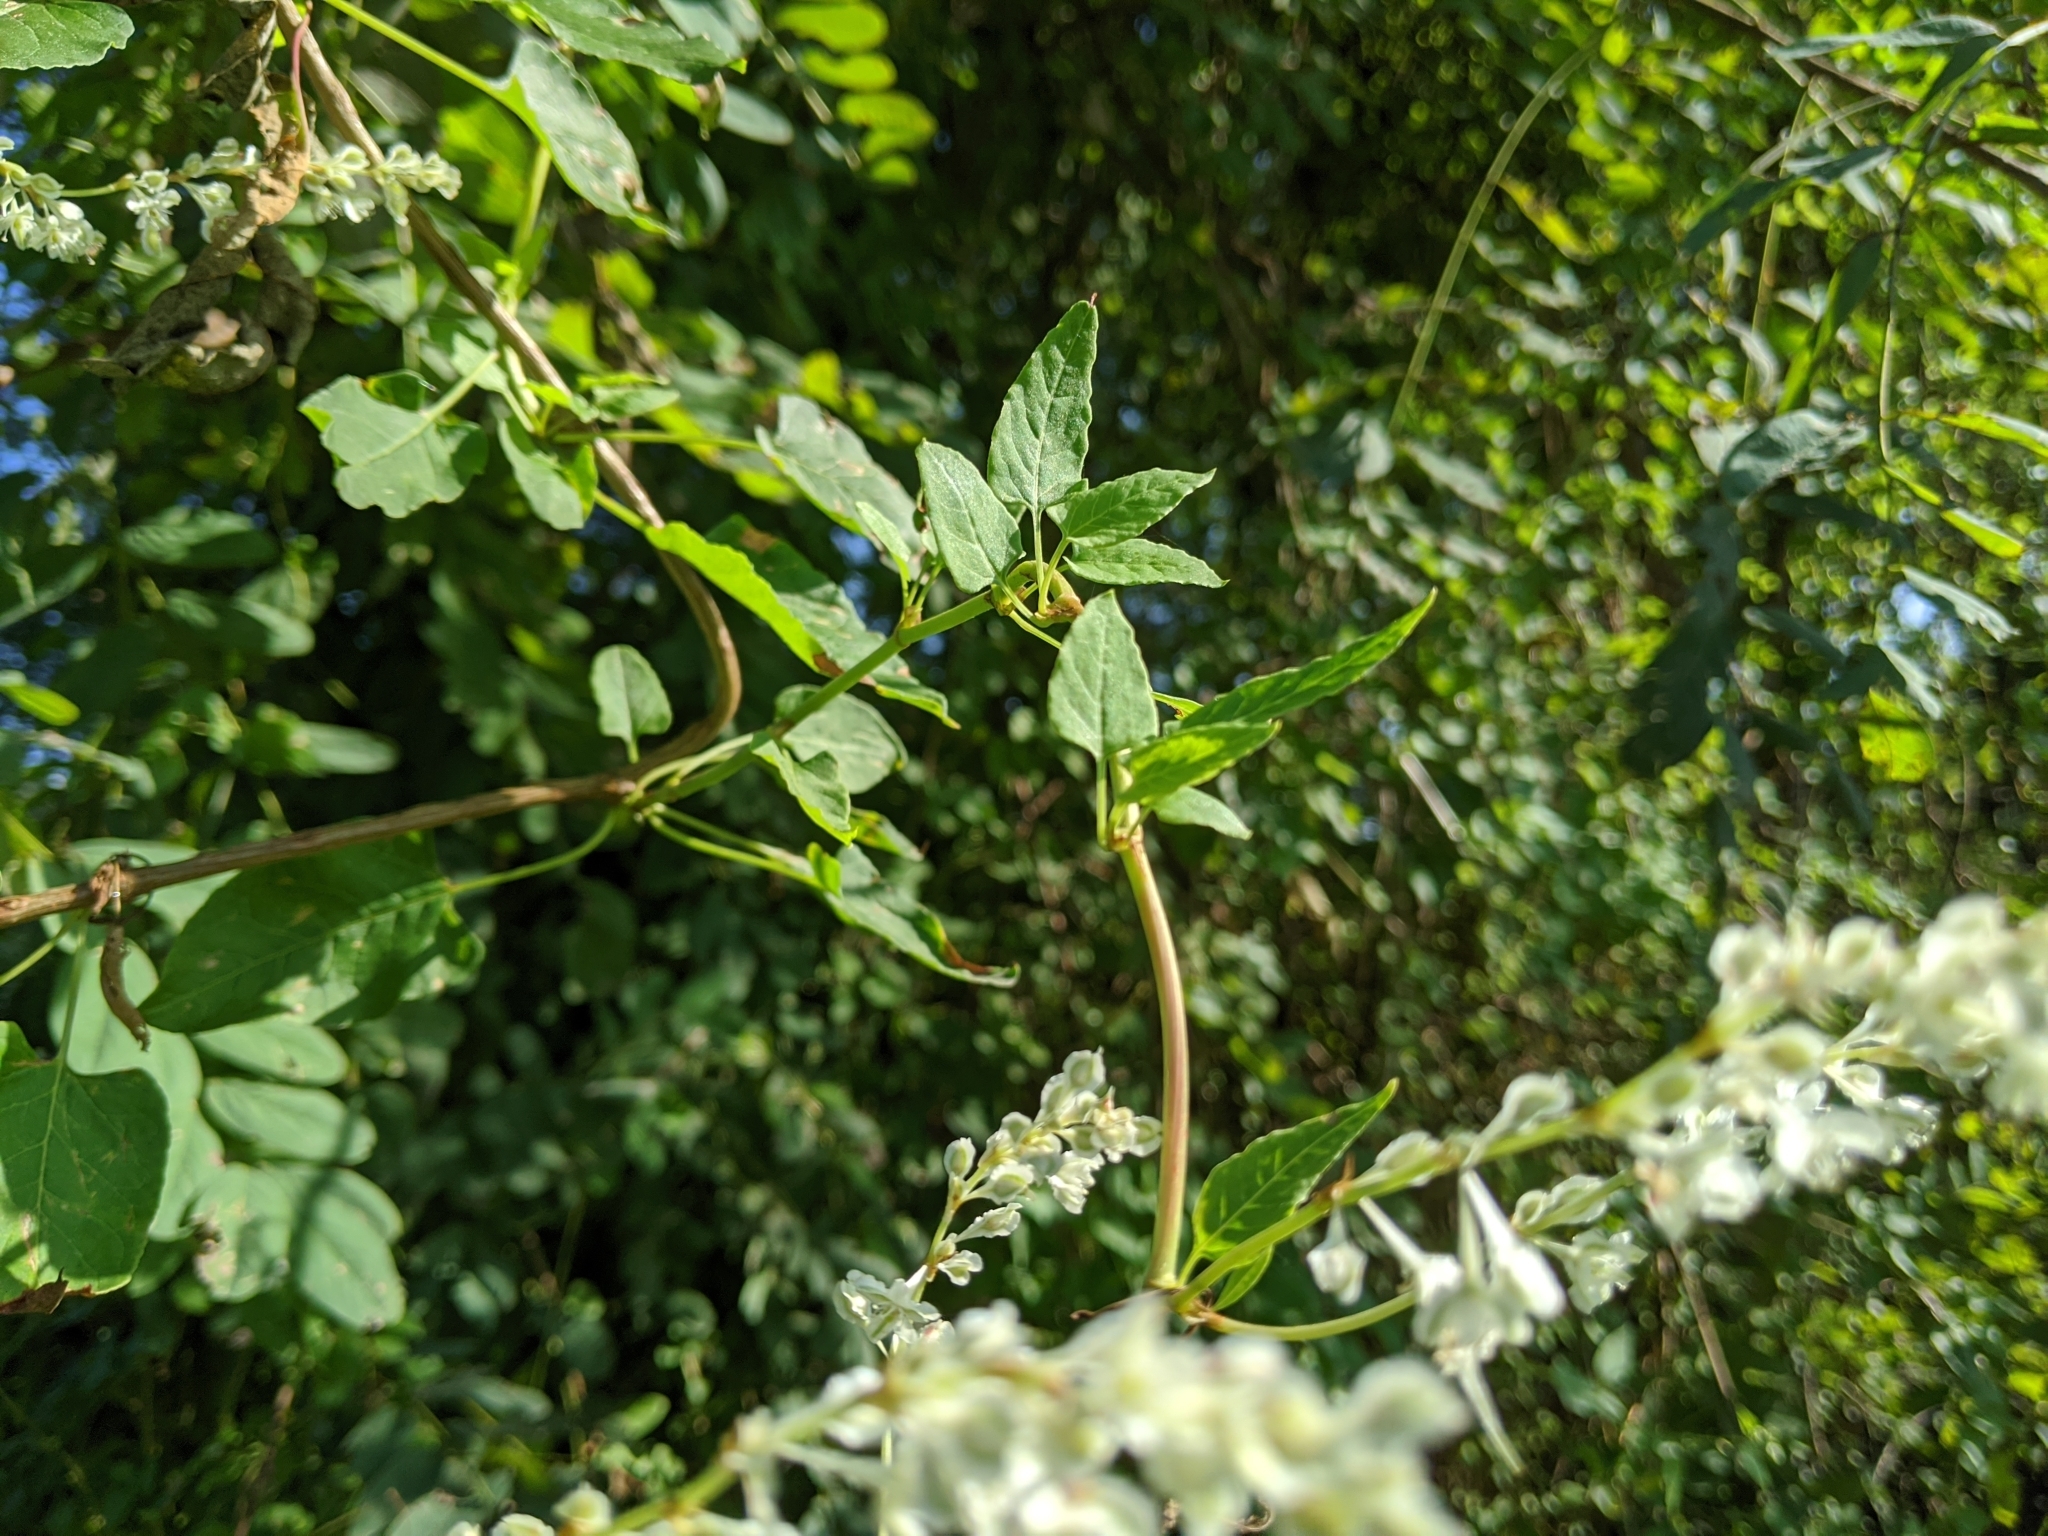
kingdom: Plantae
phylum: Tracheophyta
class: Magnoliopsida
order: Caryophyllales
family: Polygonaceae
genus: Fallopia
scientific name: Fallopia baldschuanica
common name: Russian-vine
